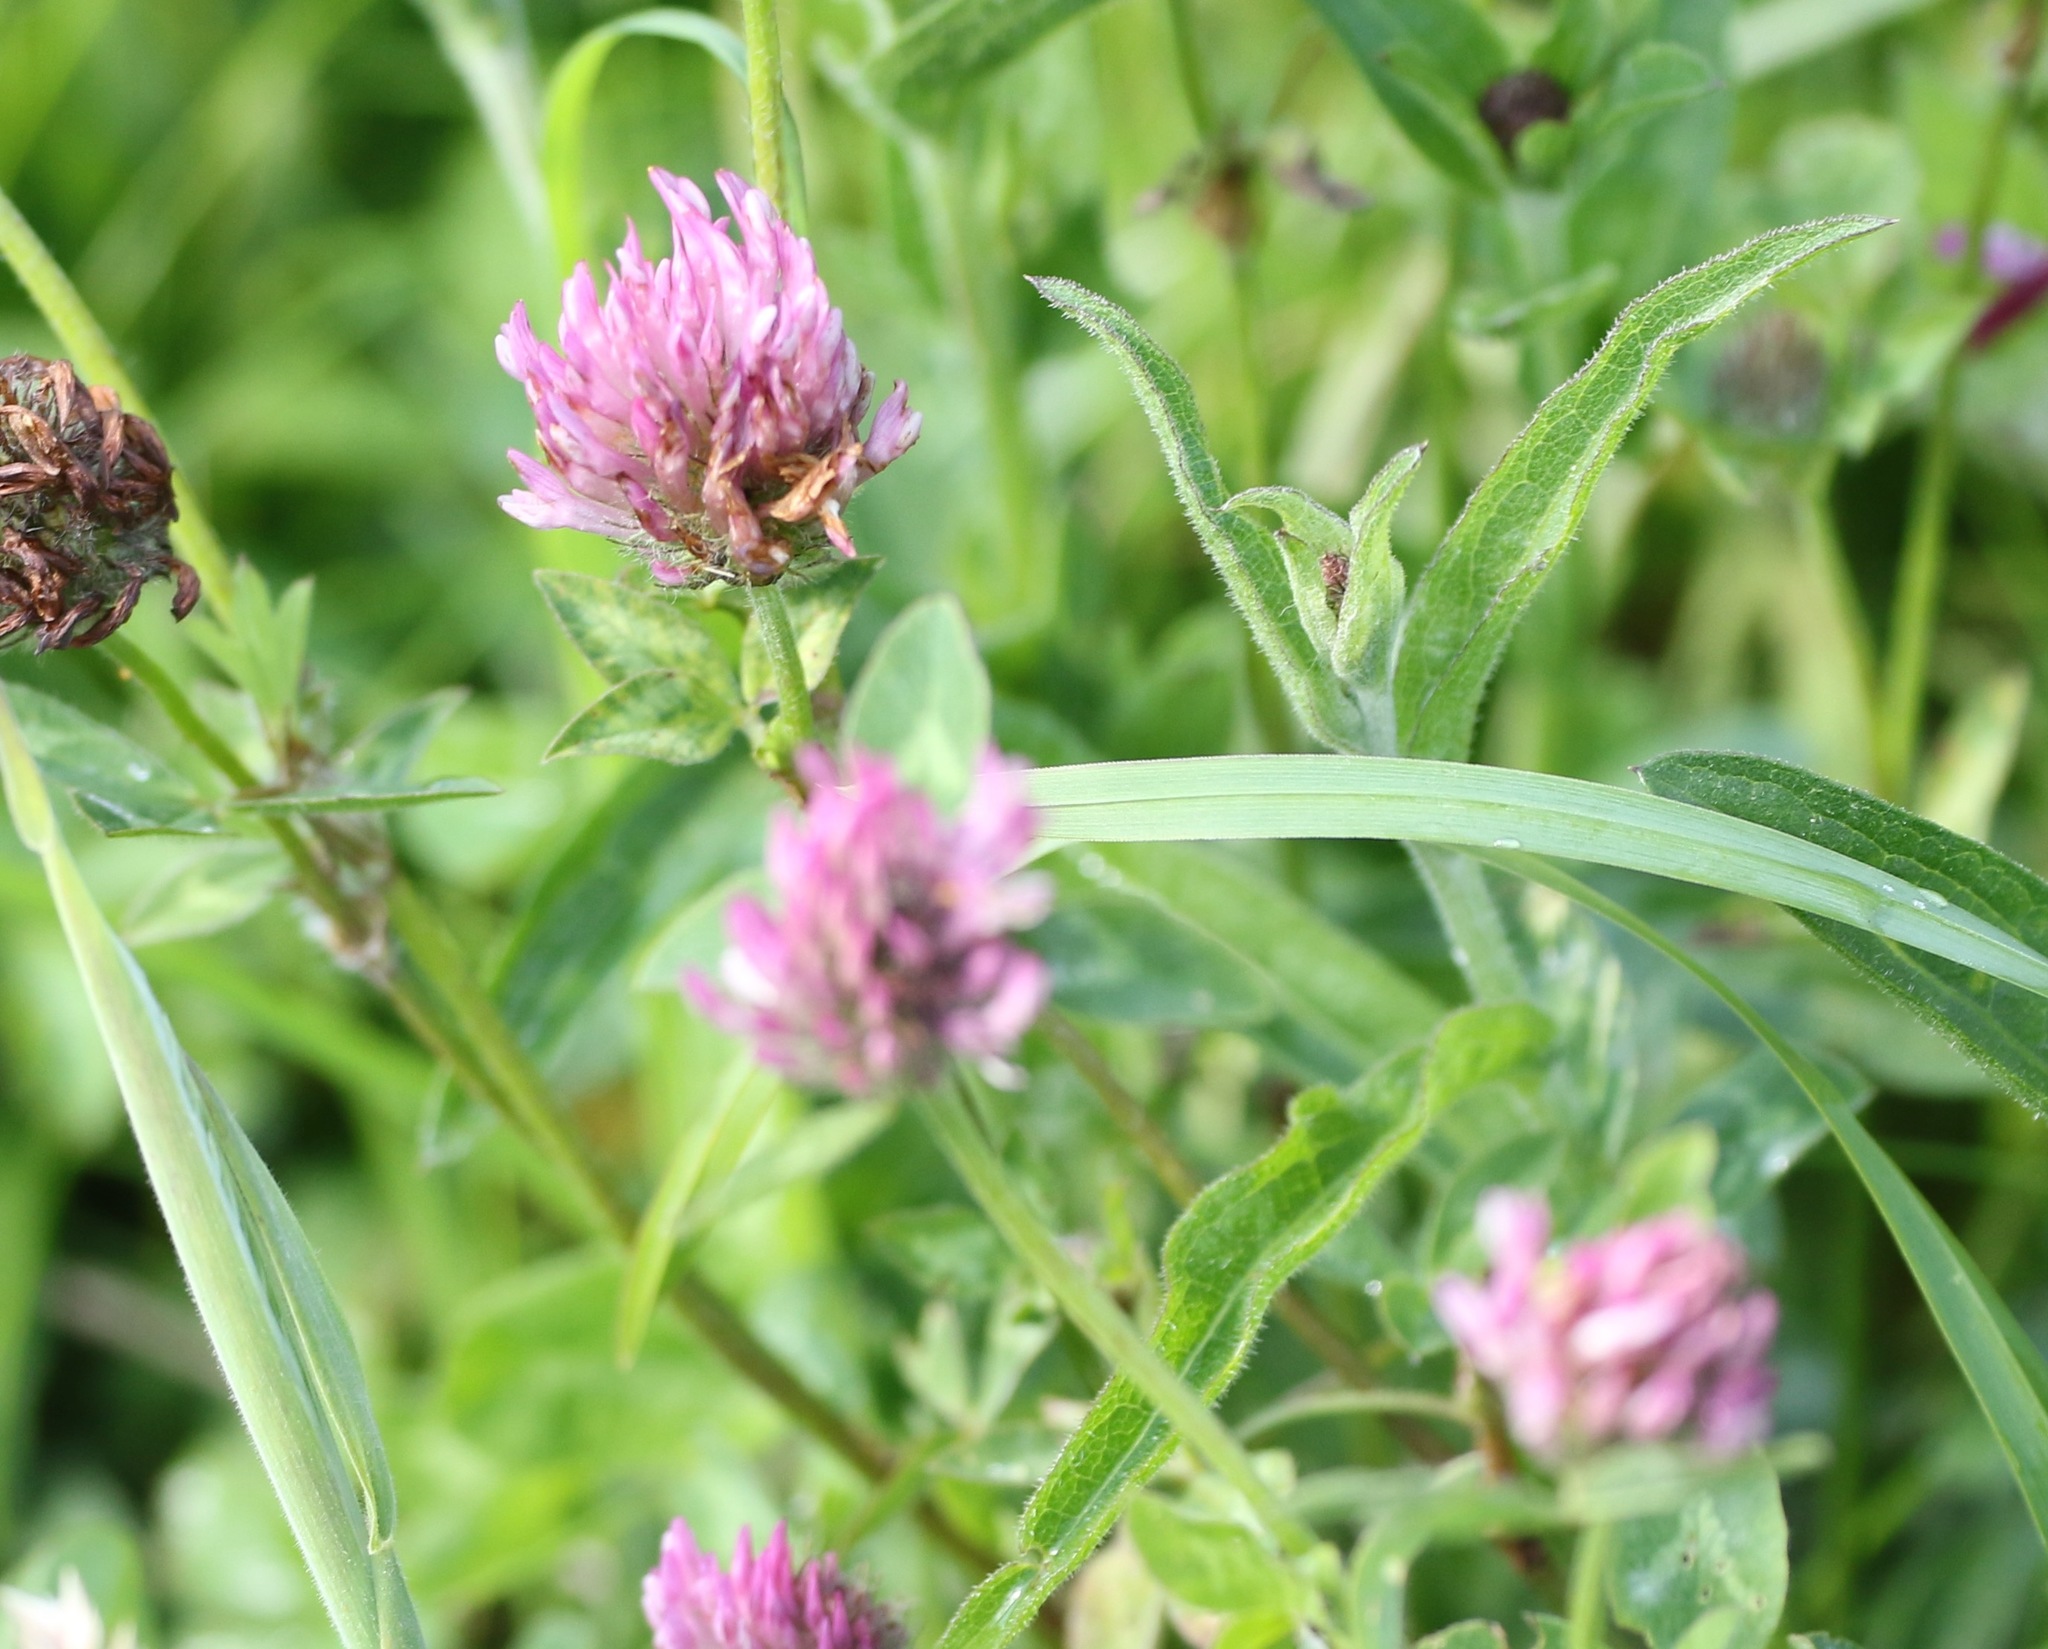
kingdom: Plantae
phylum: Tracheophyta
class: Magnoliopsida
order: Fabales
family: Fabaceae
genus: Trifolium
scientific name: Trifolium pratense
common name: Red clover
